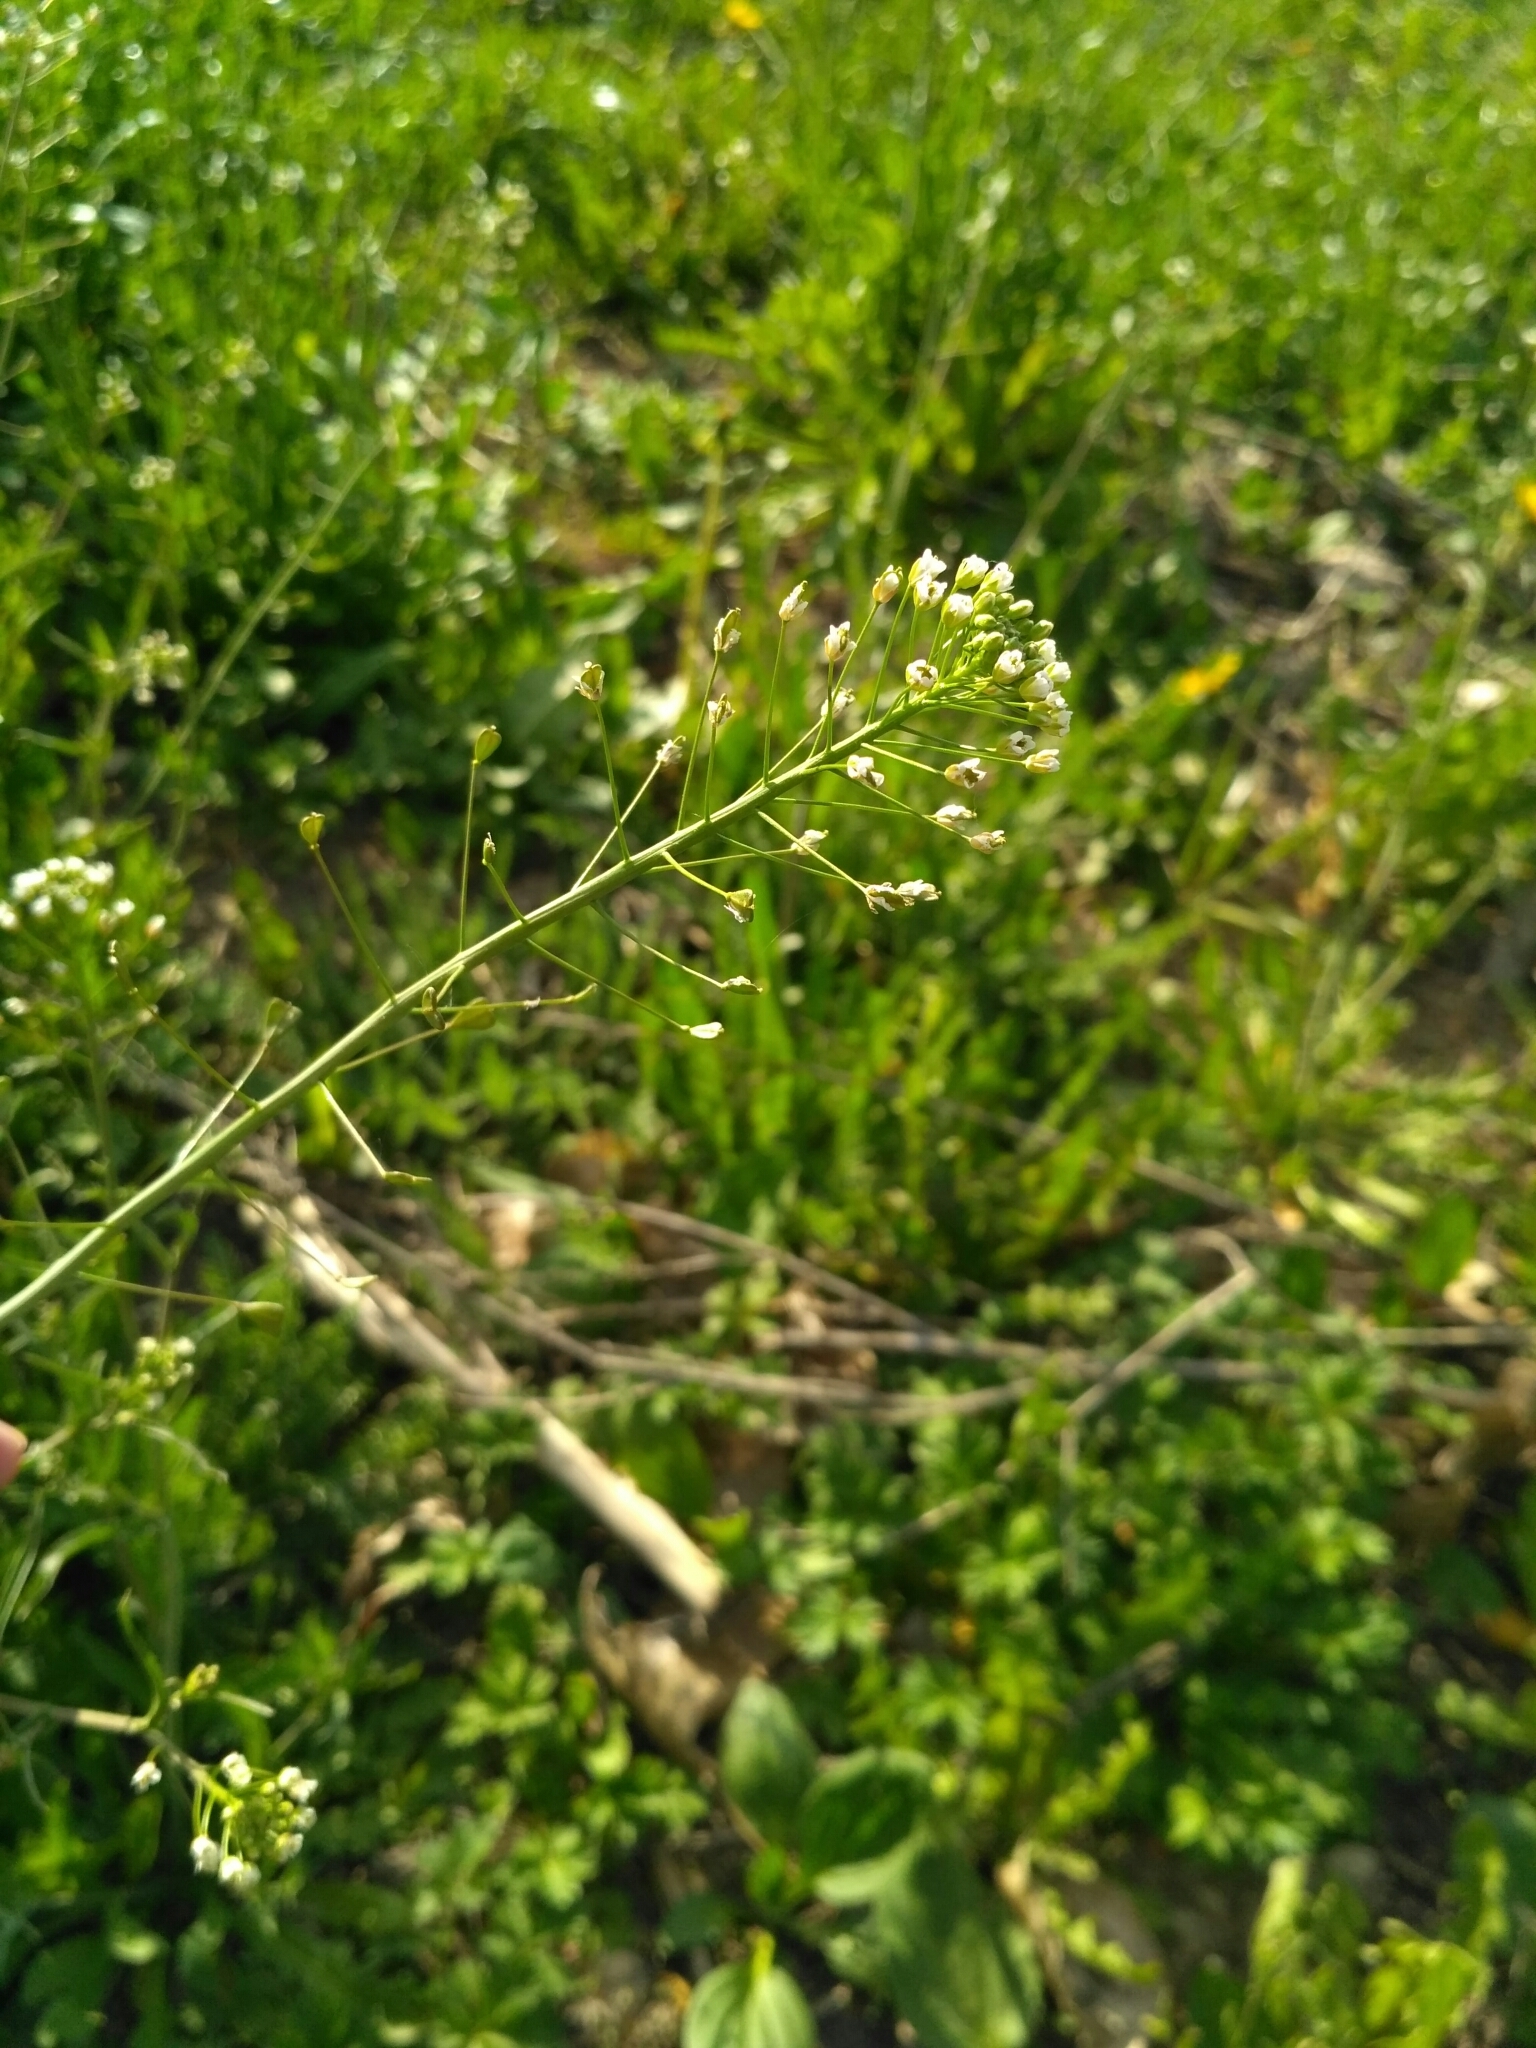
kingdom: Plantae
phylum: Tracheophyta
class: Magnoliopsida
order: Brassicales
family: Brassicaceae
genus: Capsella
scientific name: Capsella bursa-pastoris
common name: Shepherd's purse
